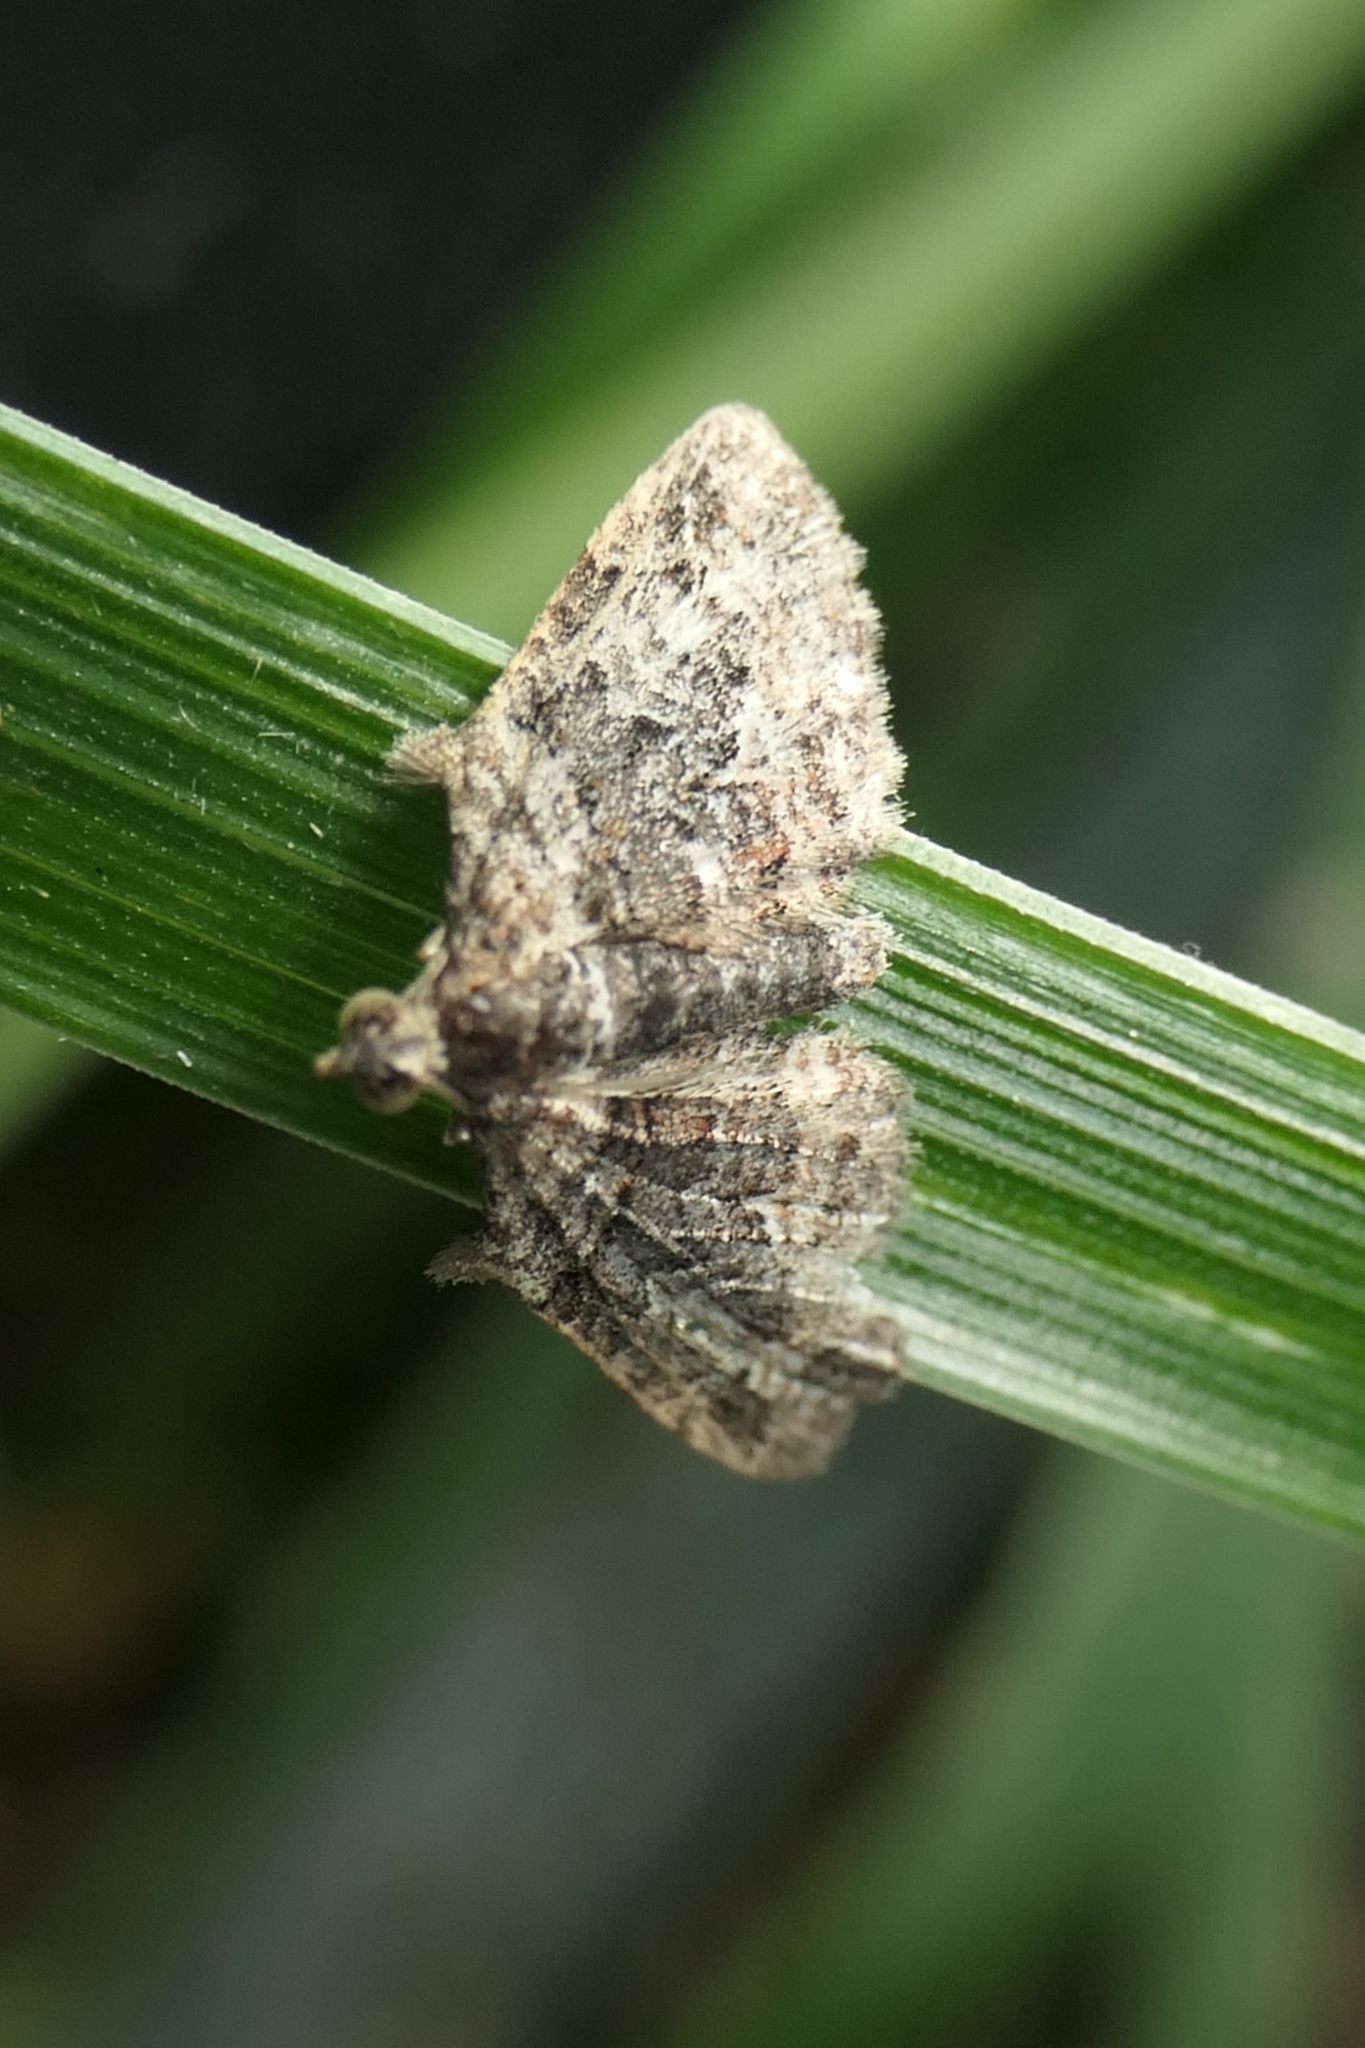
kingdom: Animalia
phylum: Arthropoda
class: Insecta
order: Lepidoptera
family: Geometridae
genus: Phrissogonus
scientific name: Phrissogonus laticostata
